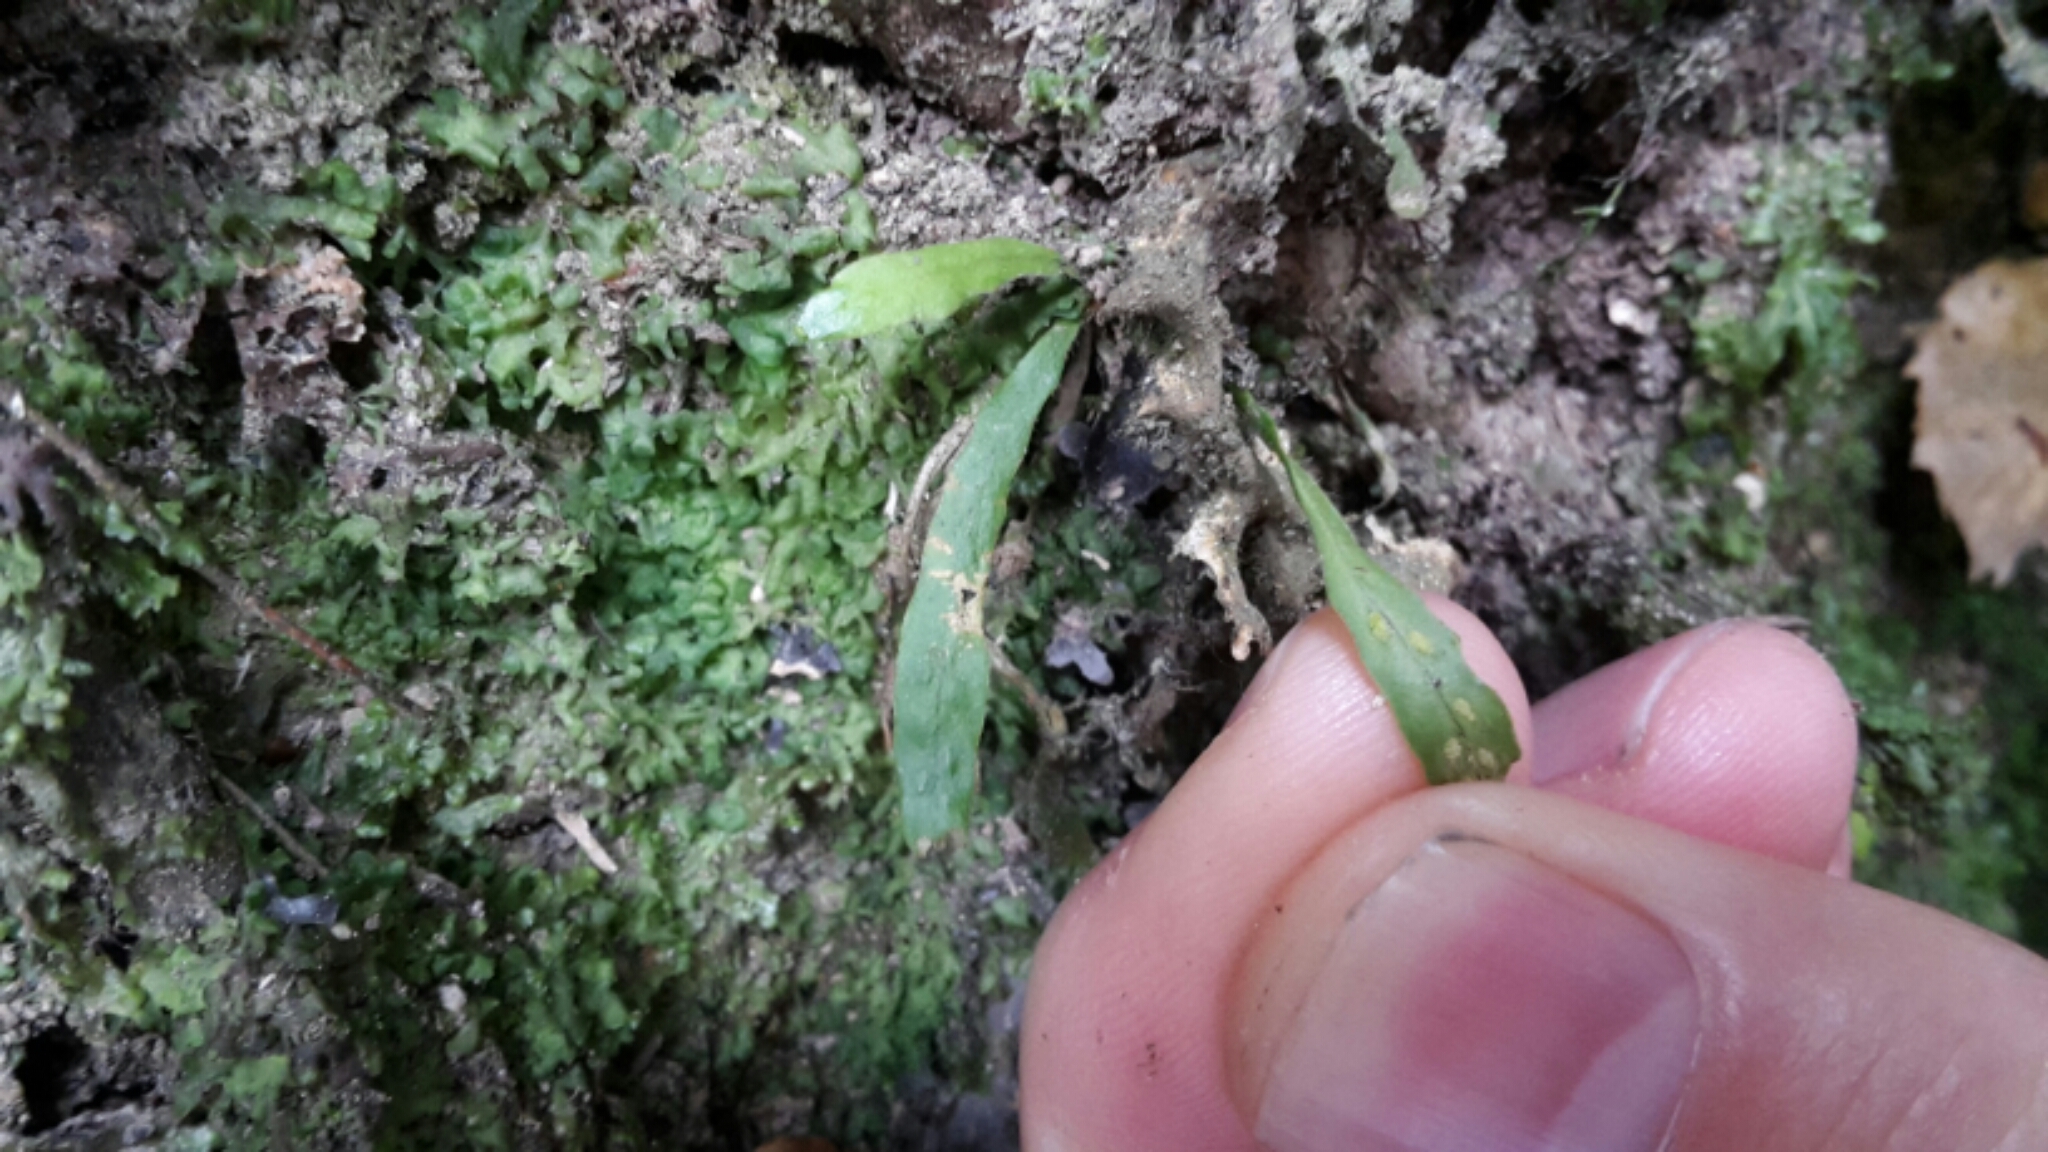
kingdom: Plantae
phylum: Tracheophyta
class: Polypodiopsida
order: Polypodiales
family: Polypodiaceae
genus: Notogrammitis
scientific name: Notogrammitis ciliata
